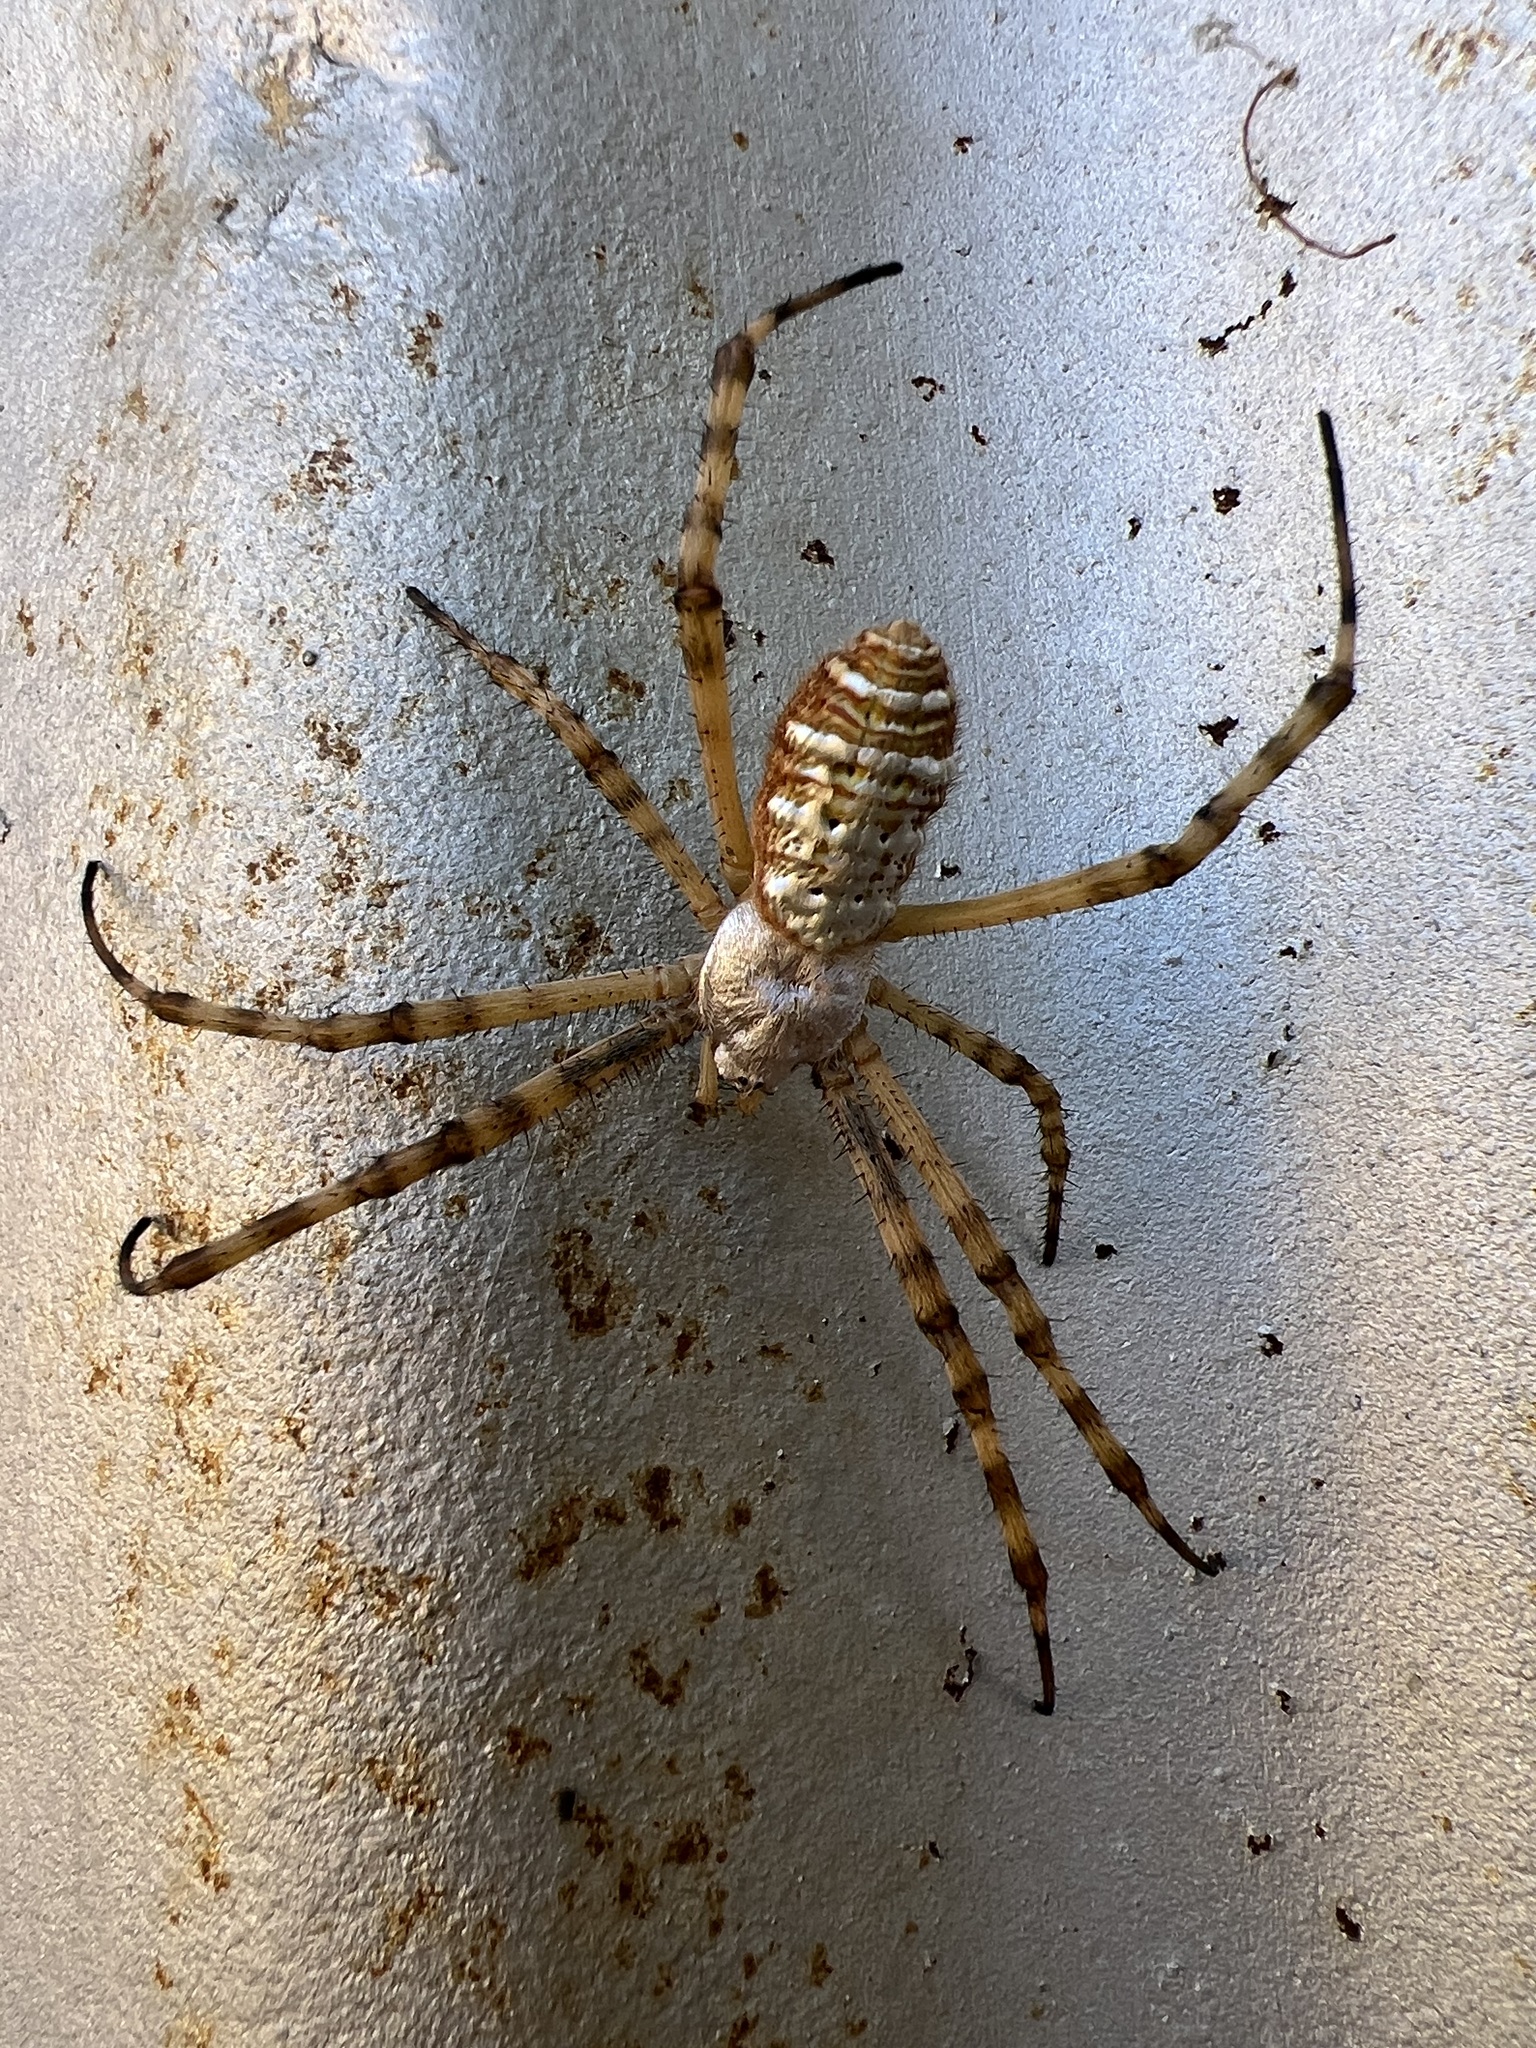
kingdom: Animalia
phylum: Arthropoda
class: Arachnida
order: Araneae
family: Araneidae
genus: Argiope
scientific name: Argiope trifasciata
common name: Banded garden spider
